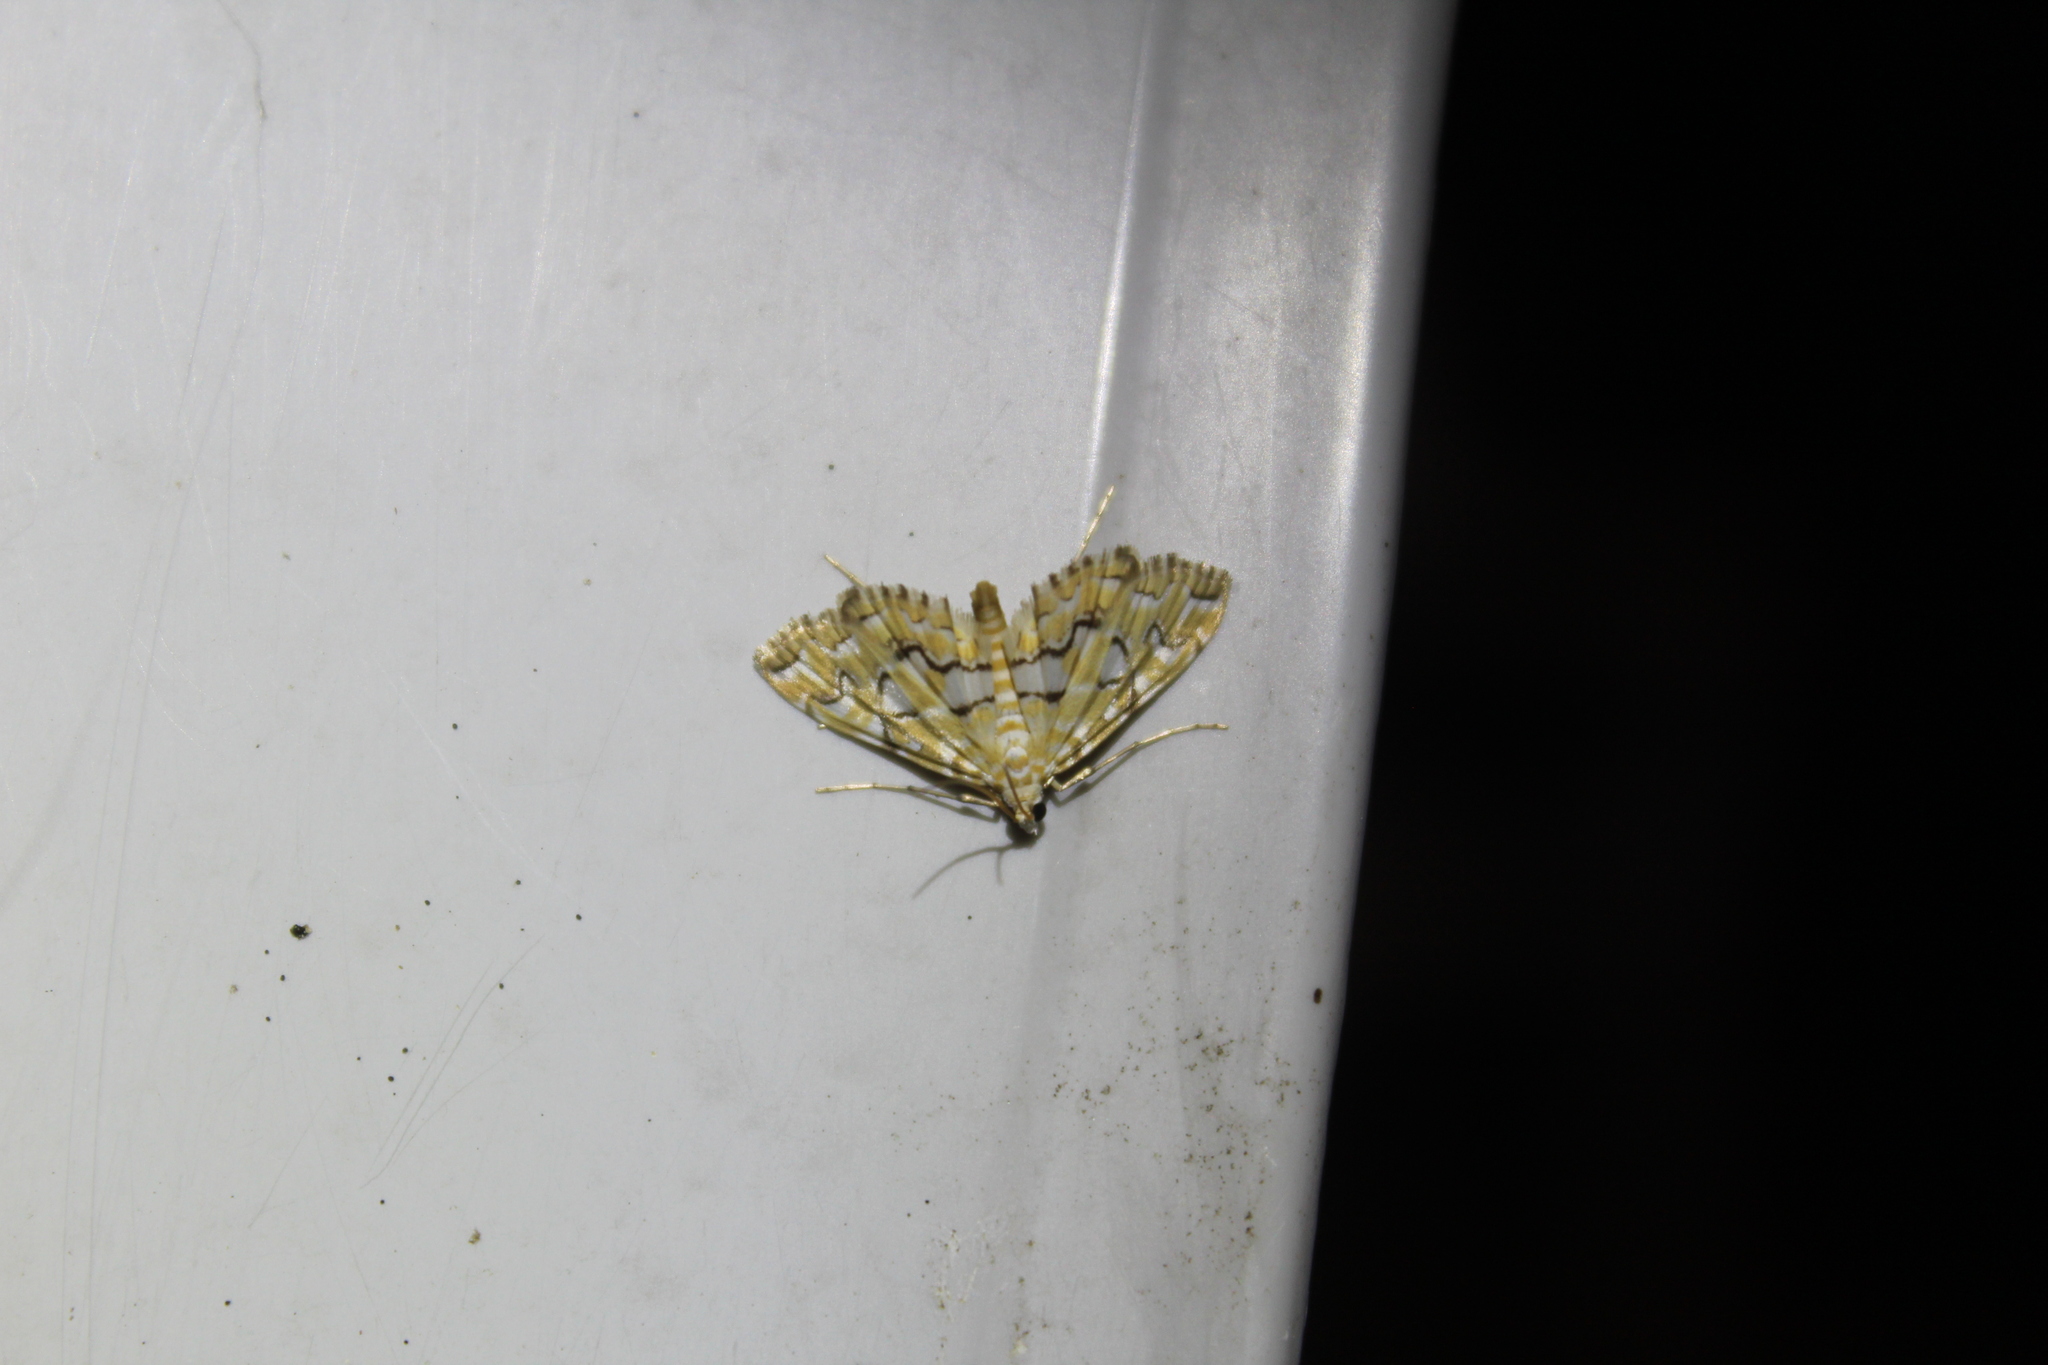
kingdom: Animalia
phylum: Arthropoda
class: Insecta
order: Lepidoptera
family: Crambidae
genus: Elophila
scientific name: Elophila icciusalis
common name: Pondside pyralid moth
